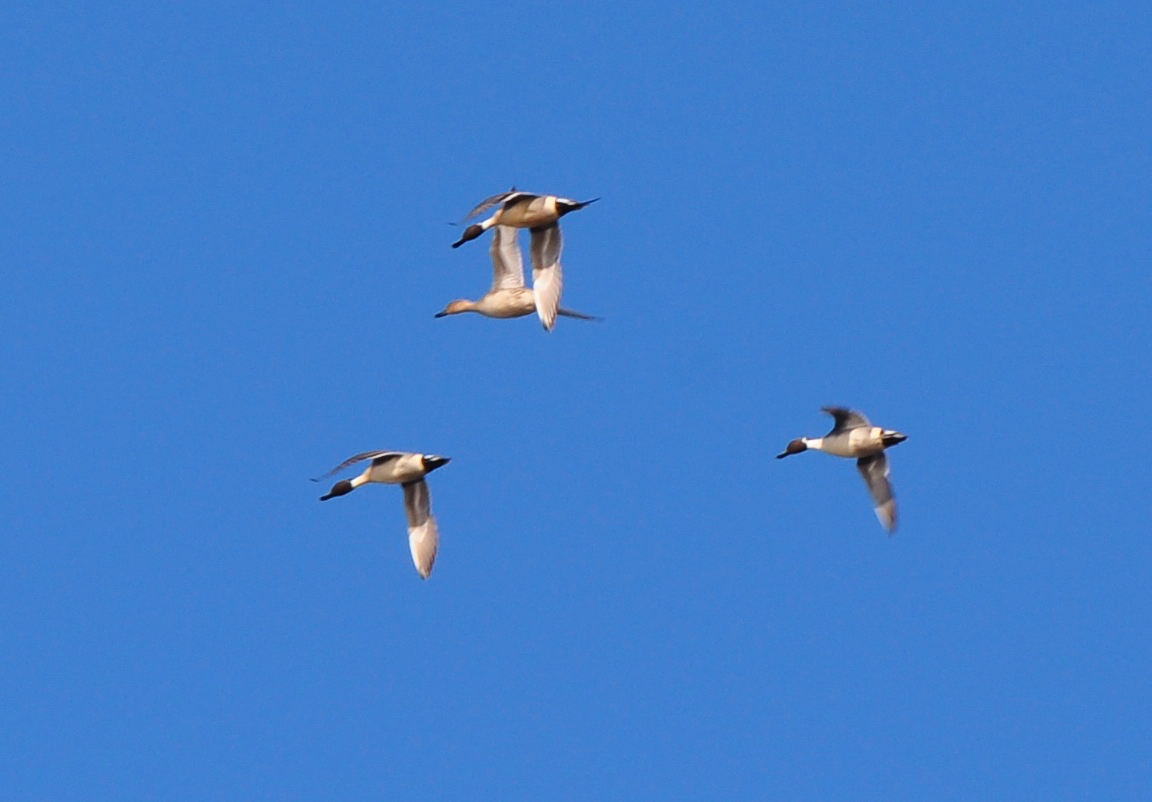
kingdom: Animalia
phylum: Chordata
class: Aves
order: Anseriformes
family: Anatidae
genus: Anas
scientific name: Anas acuta
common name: Northern pintail
